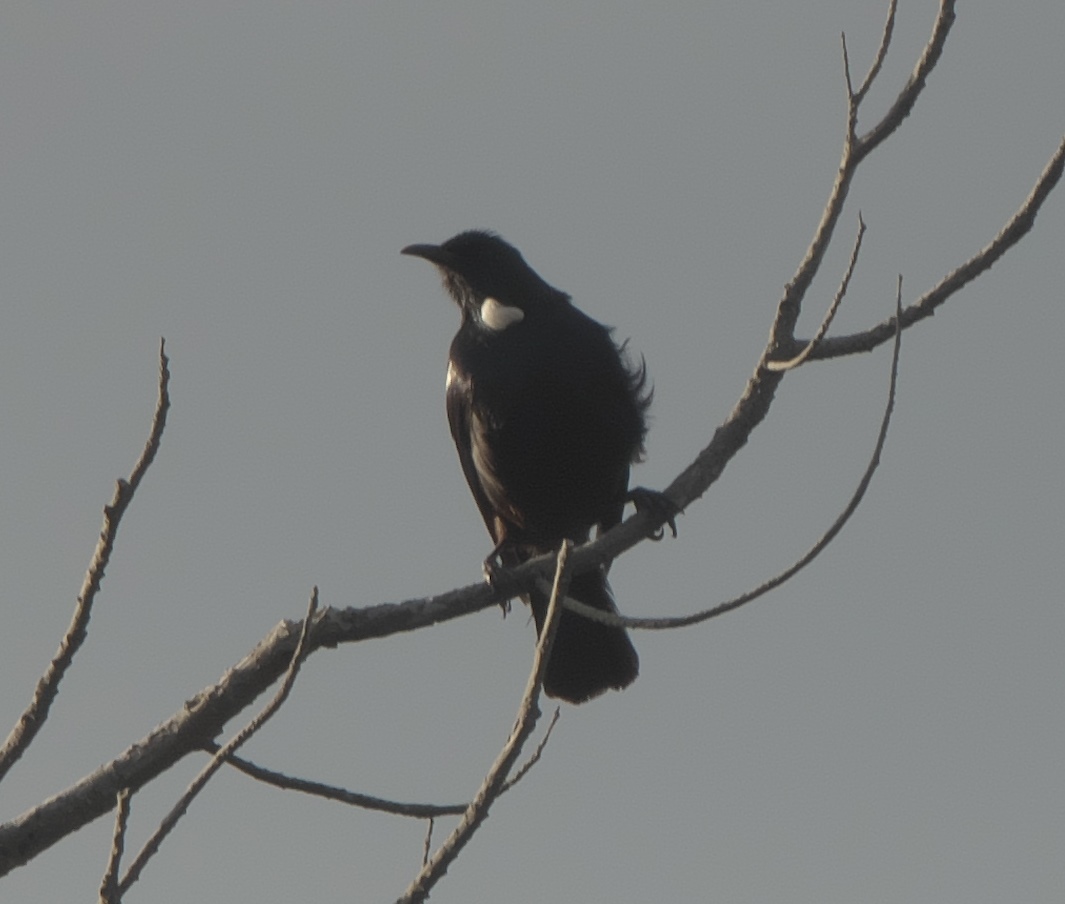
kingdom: Animalia
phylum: Chordata
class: Aves
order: Passeriformes
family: Meliphagidae
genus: Prosthemadera
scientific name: Prosthemadera novaeseelandiae
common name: Tui
